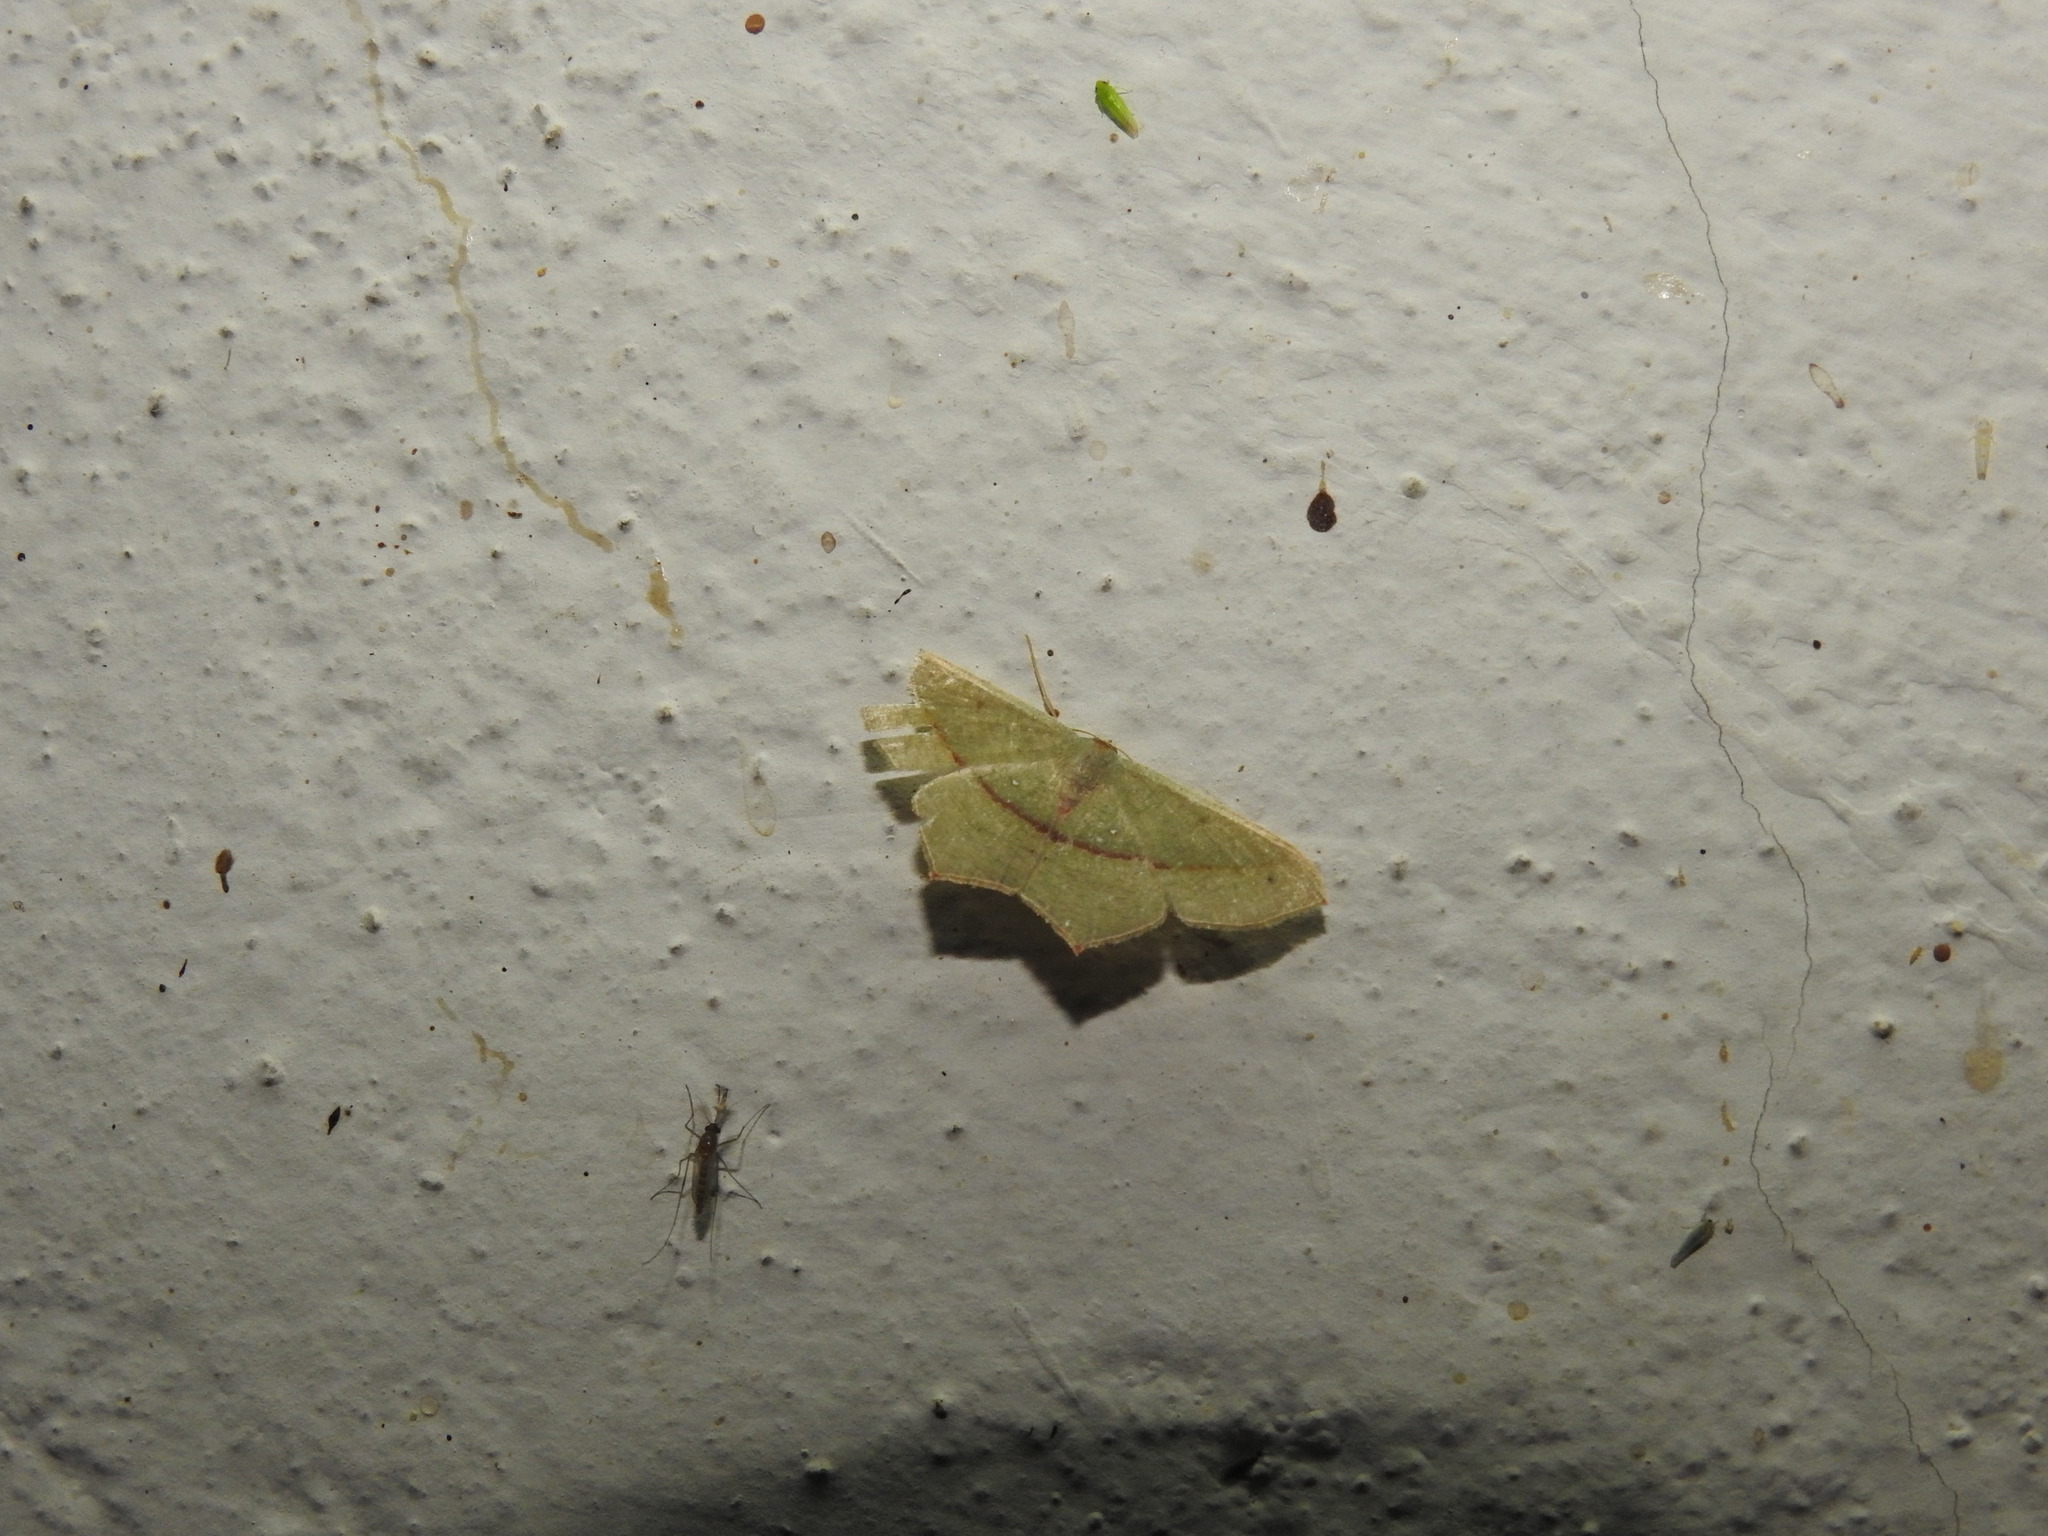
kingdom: Animalia
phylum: Arthropoda
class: Insecta
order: Lepidoptera
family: Geometridae
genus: Traminda
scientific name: Traminda mundissima
